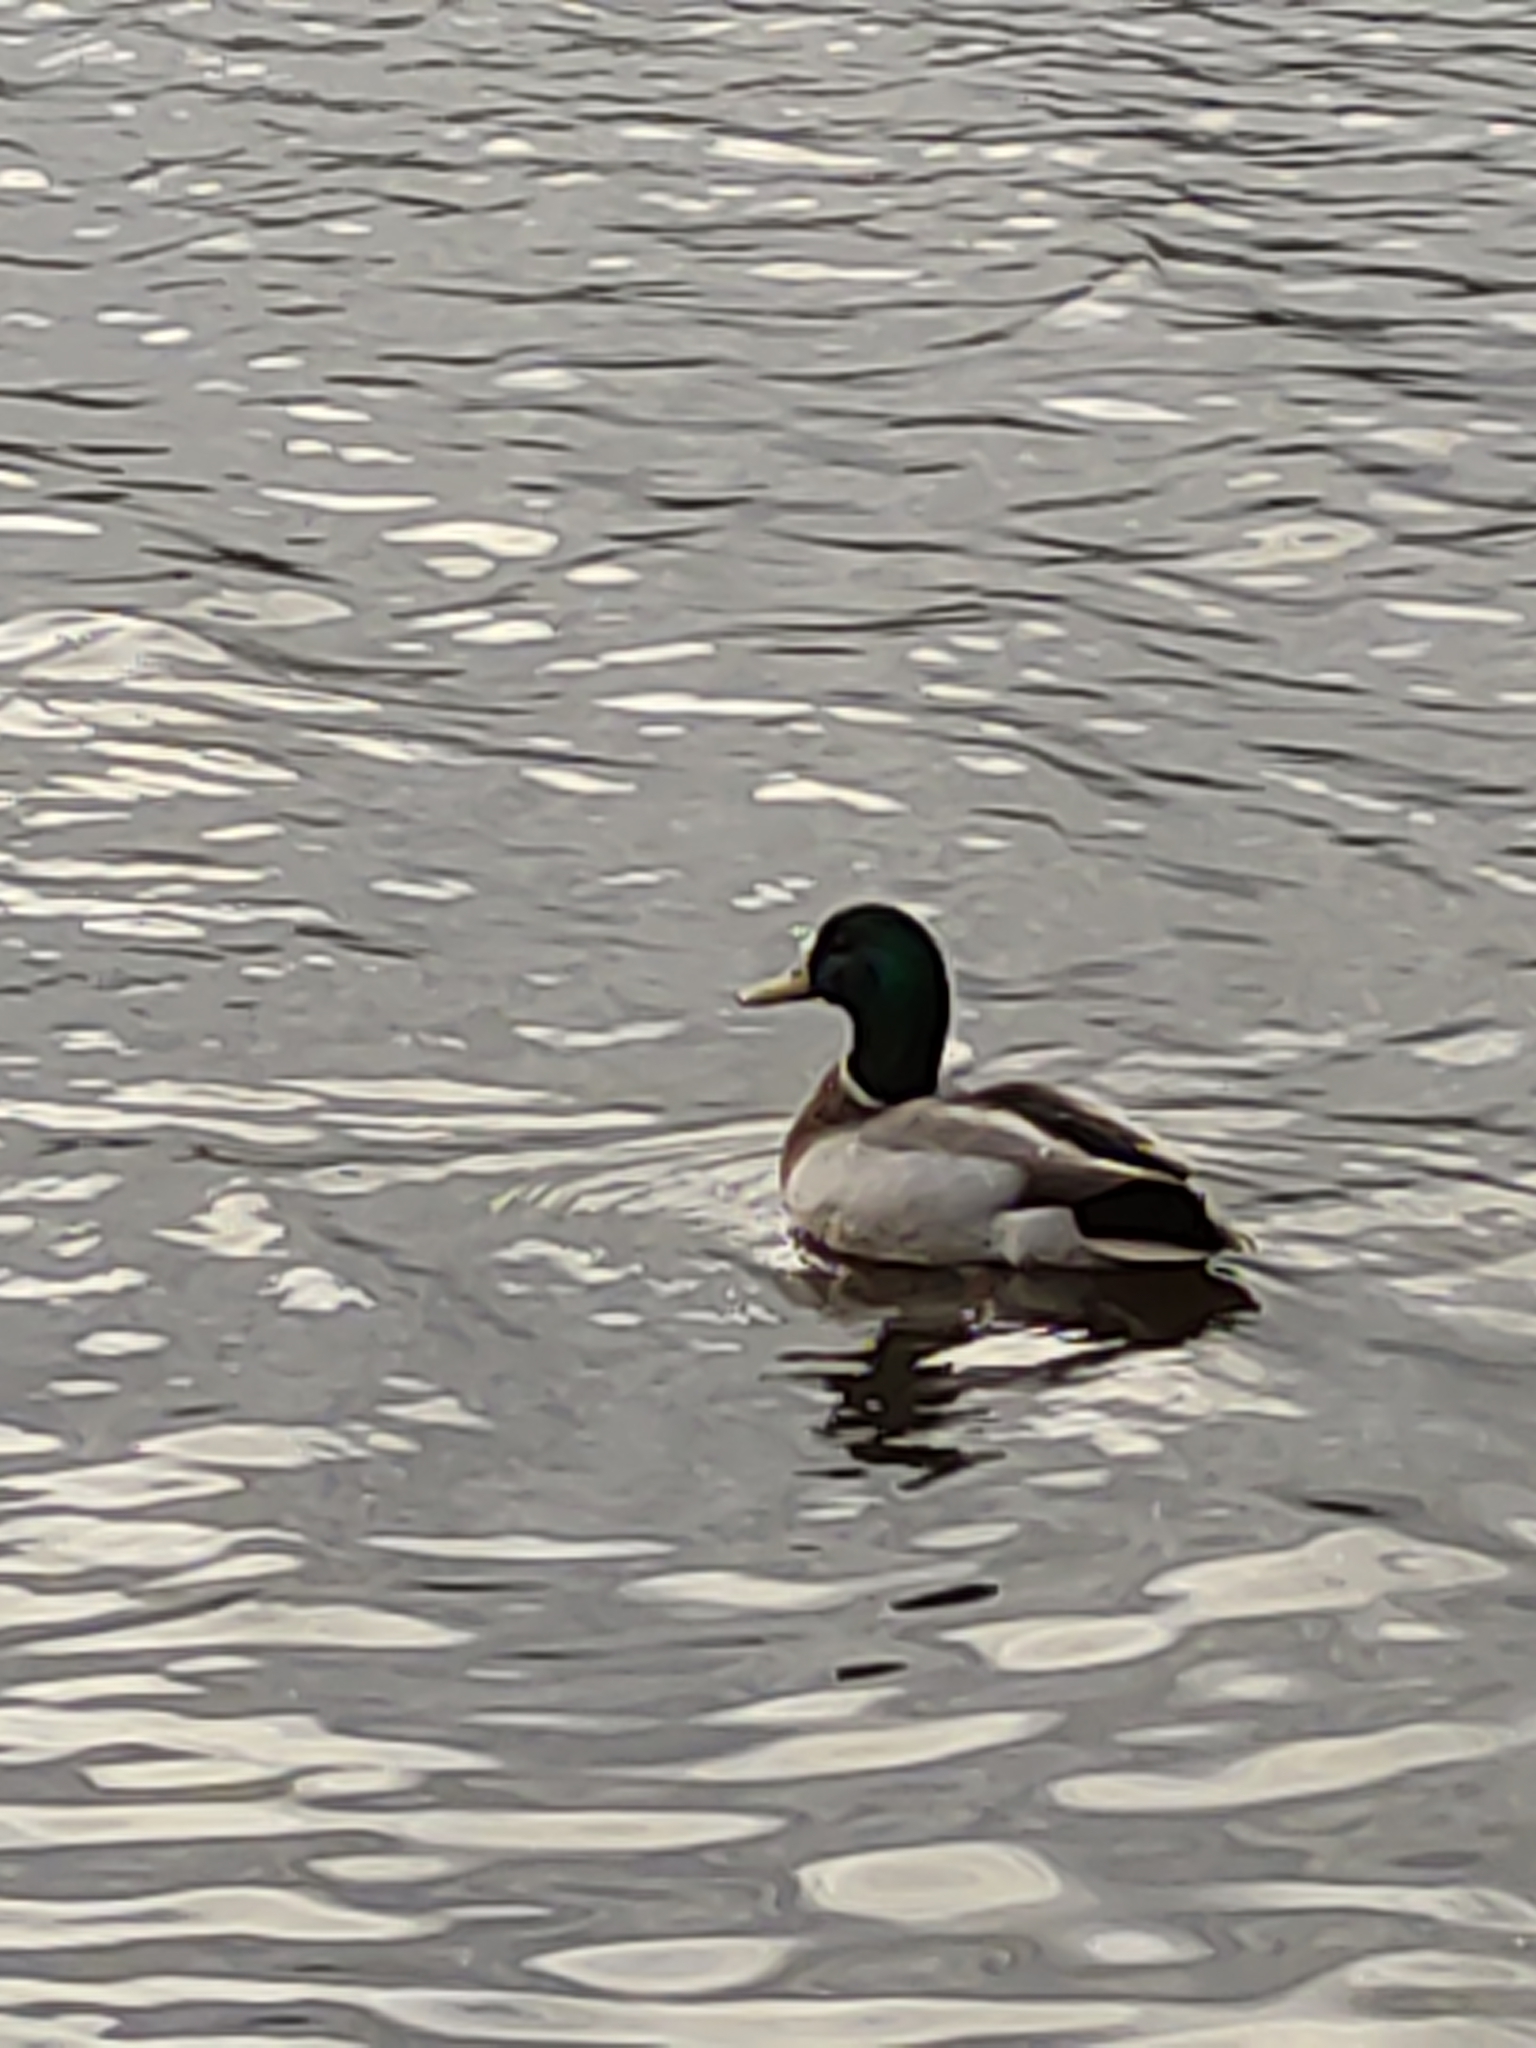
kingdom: Animalia
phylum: Chordata
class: Aves
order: Anseriformes
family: Anatidae
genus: Anas
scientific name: Anas platyrhynchos
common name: Mallard
